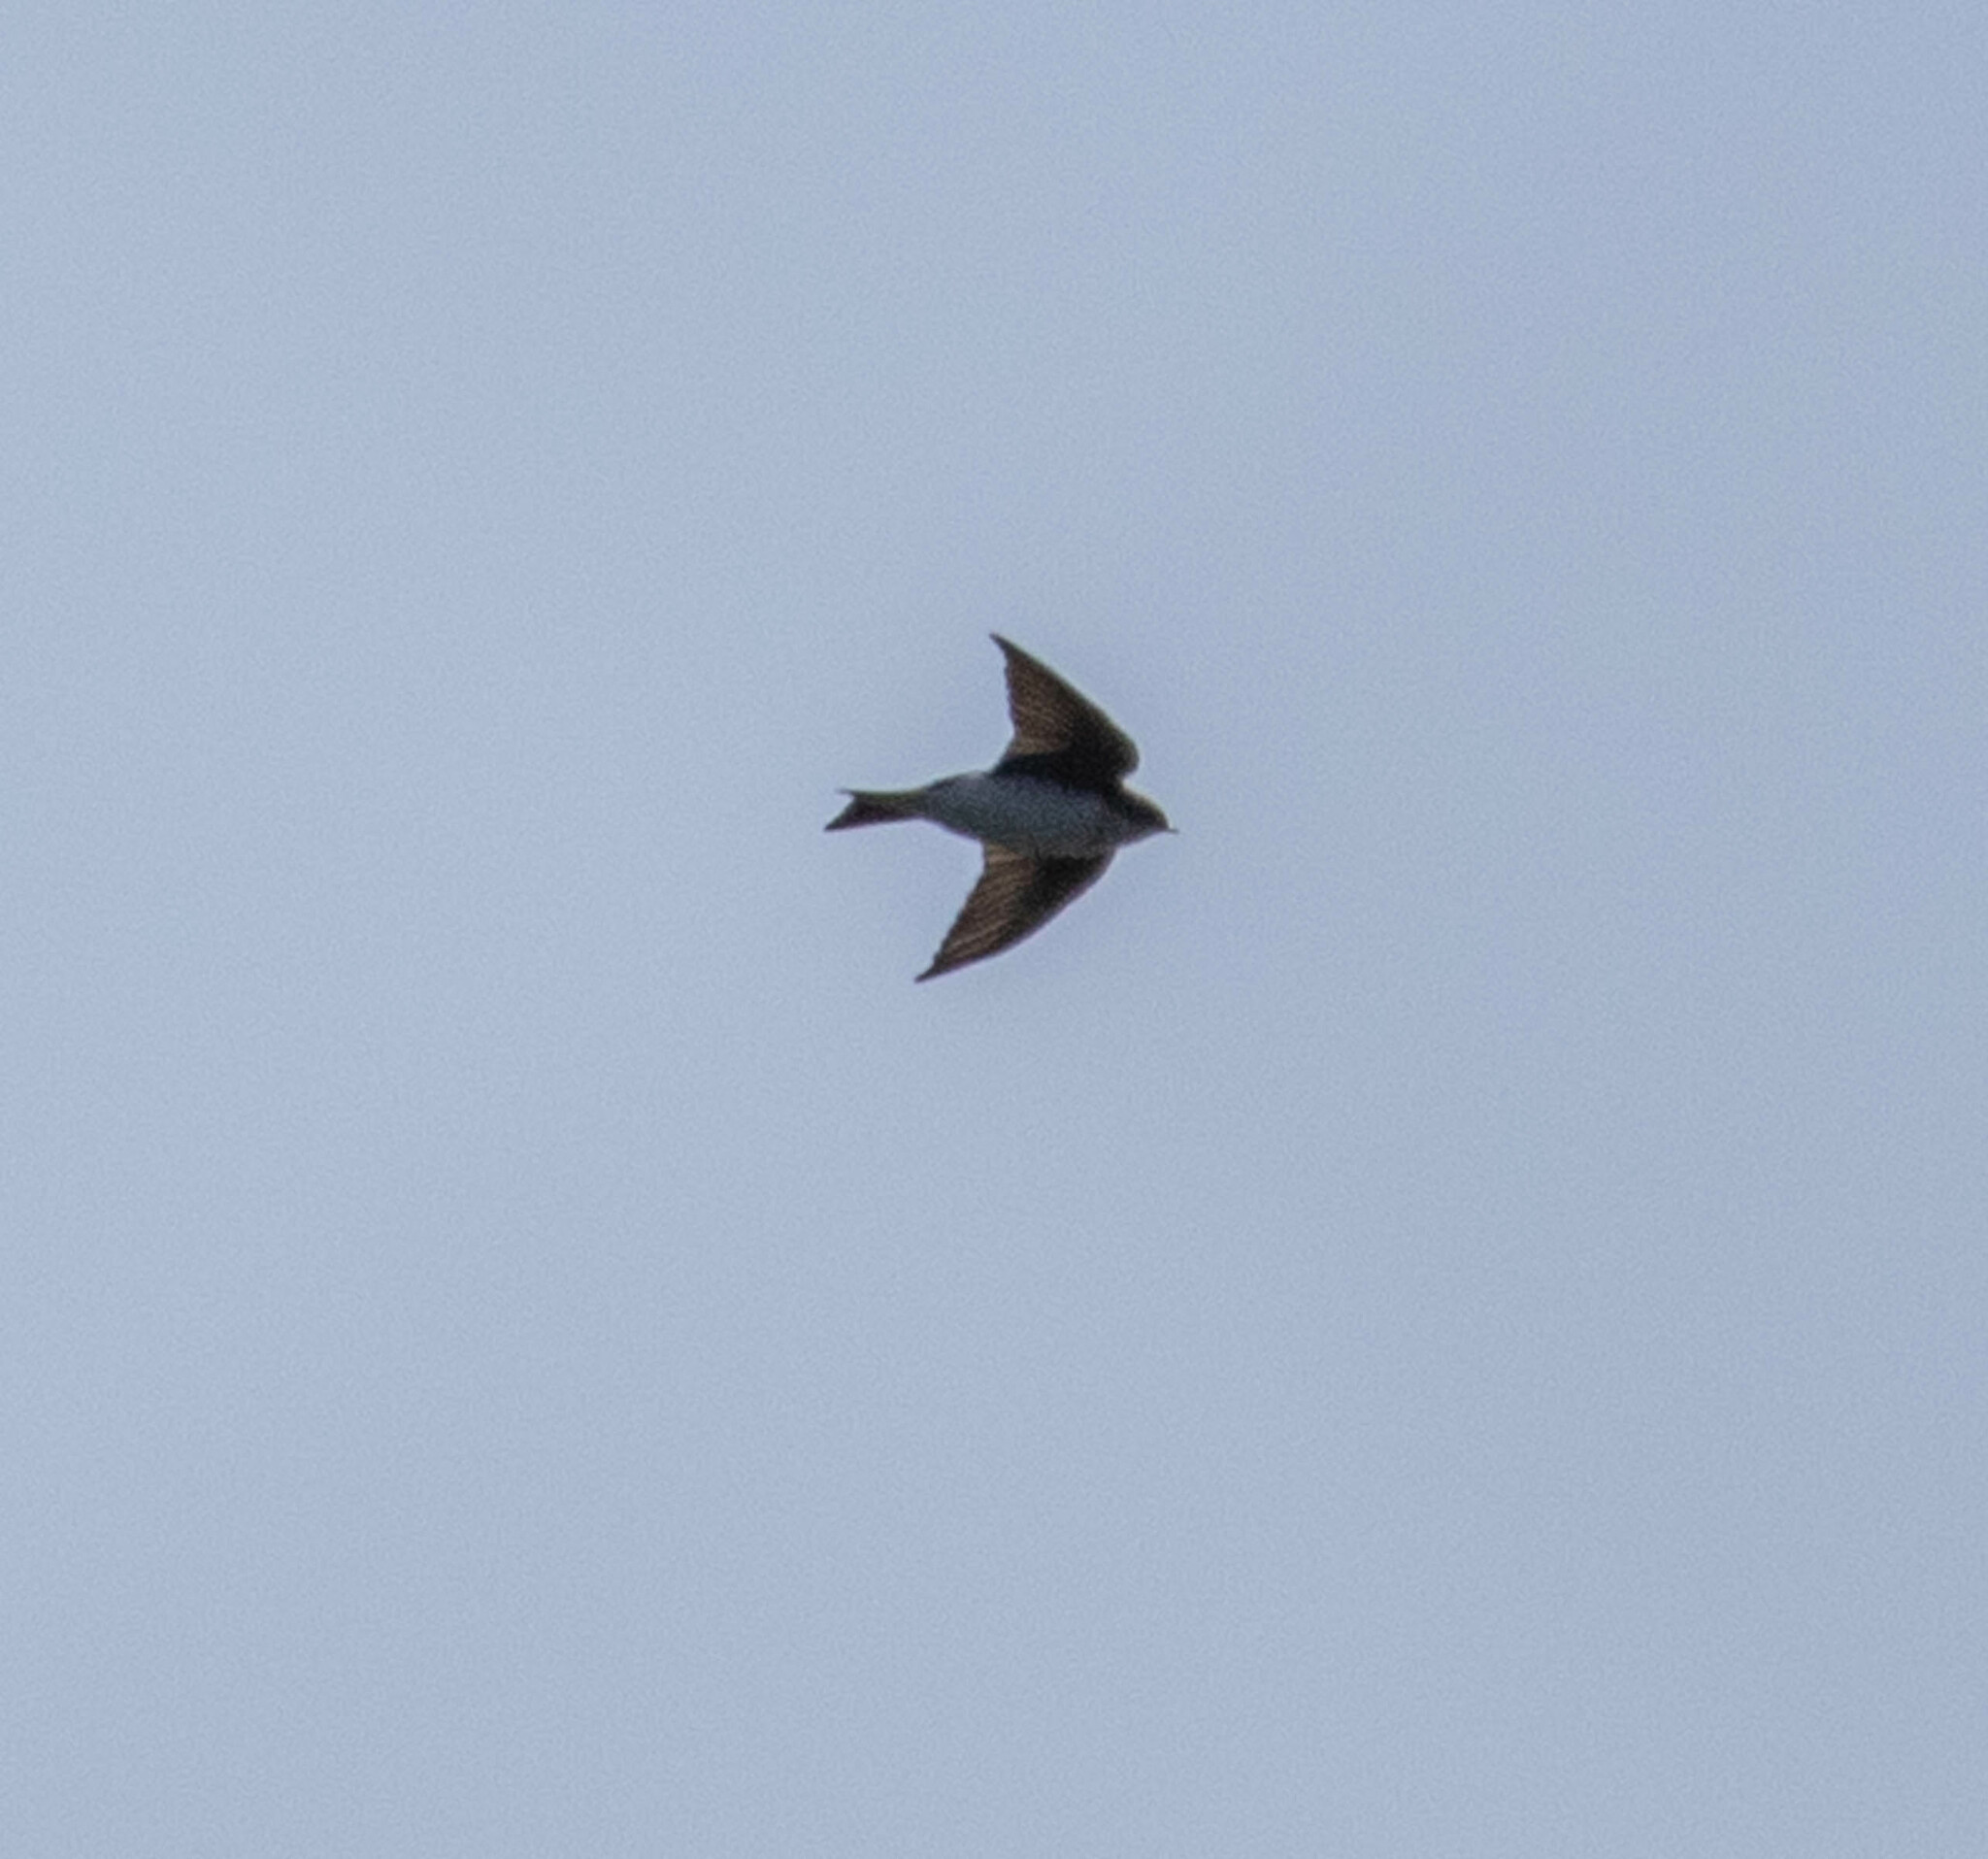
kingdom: Animalia
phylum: Chordata
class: Aves
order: Passeriformes
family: Hirundinidae
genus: Tachycineta
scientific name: Tachycineta bicolor
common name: Tree swallow
